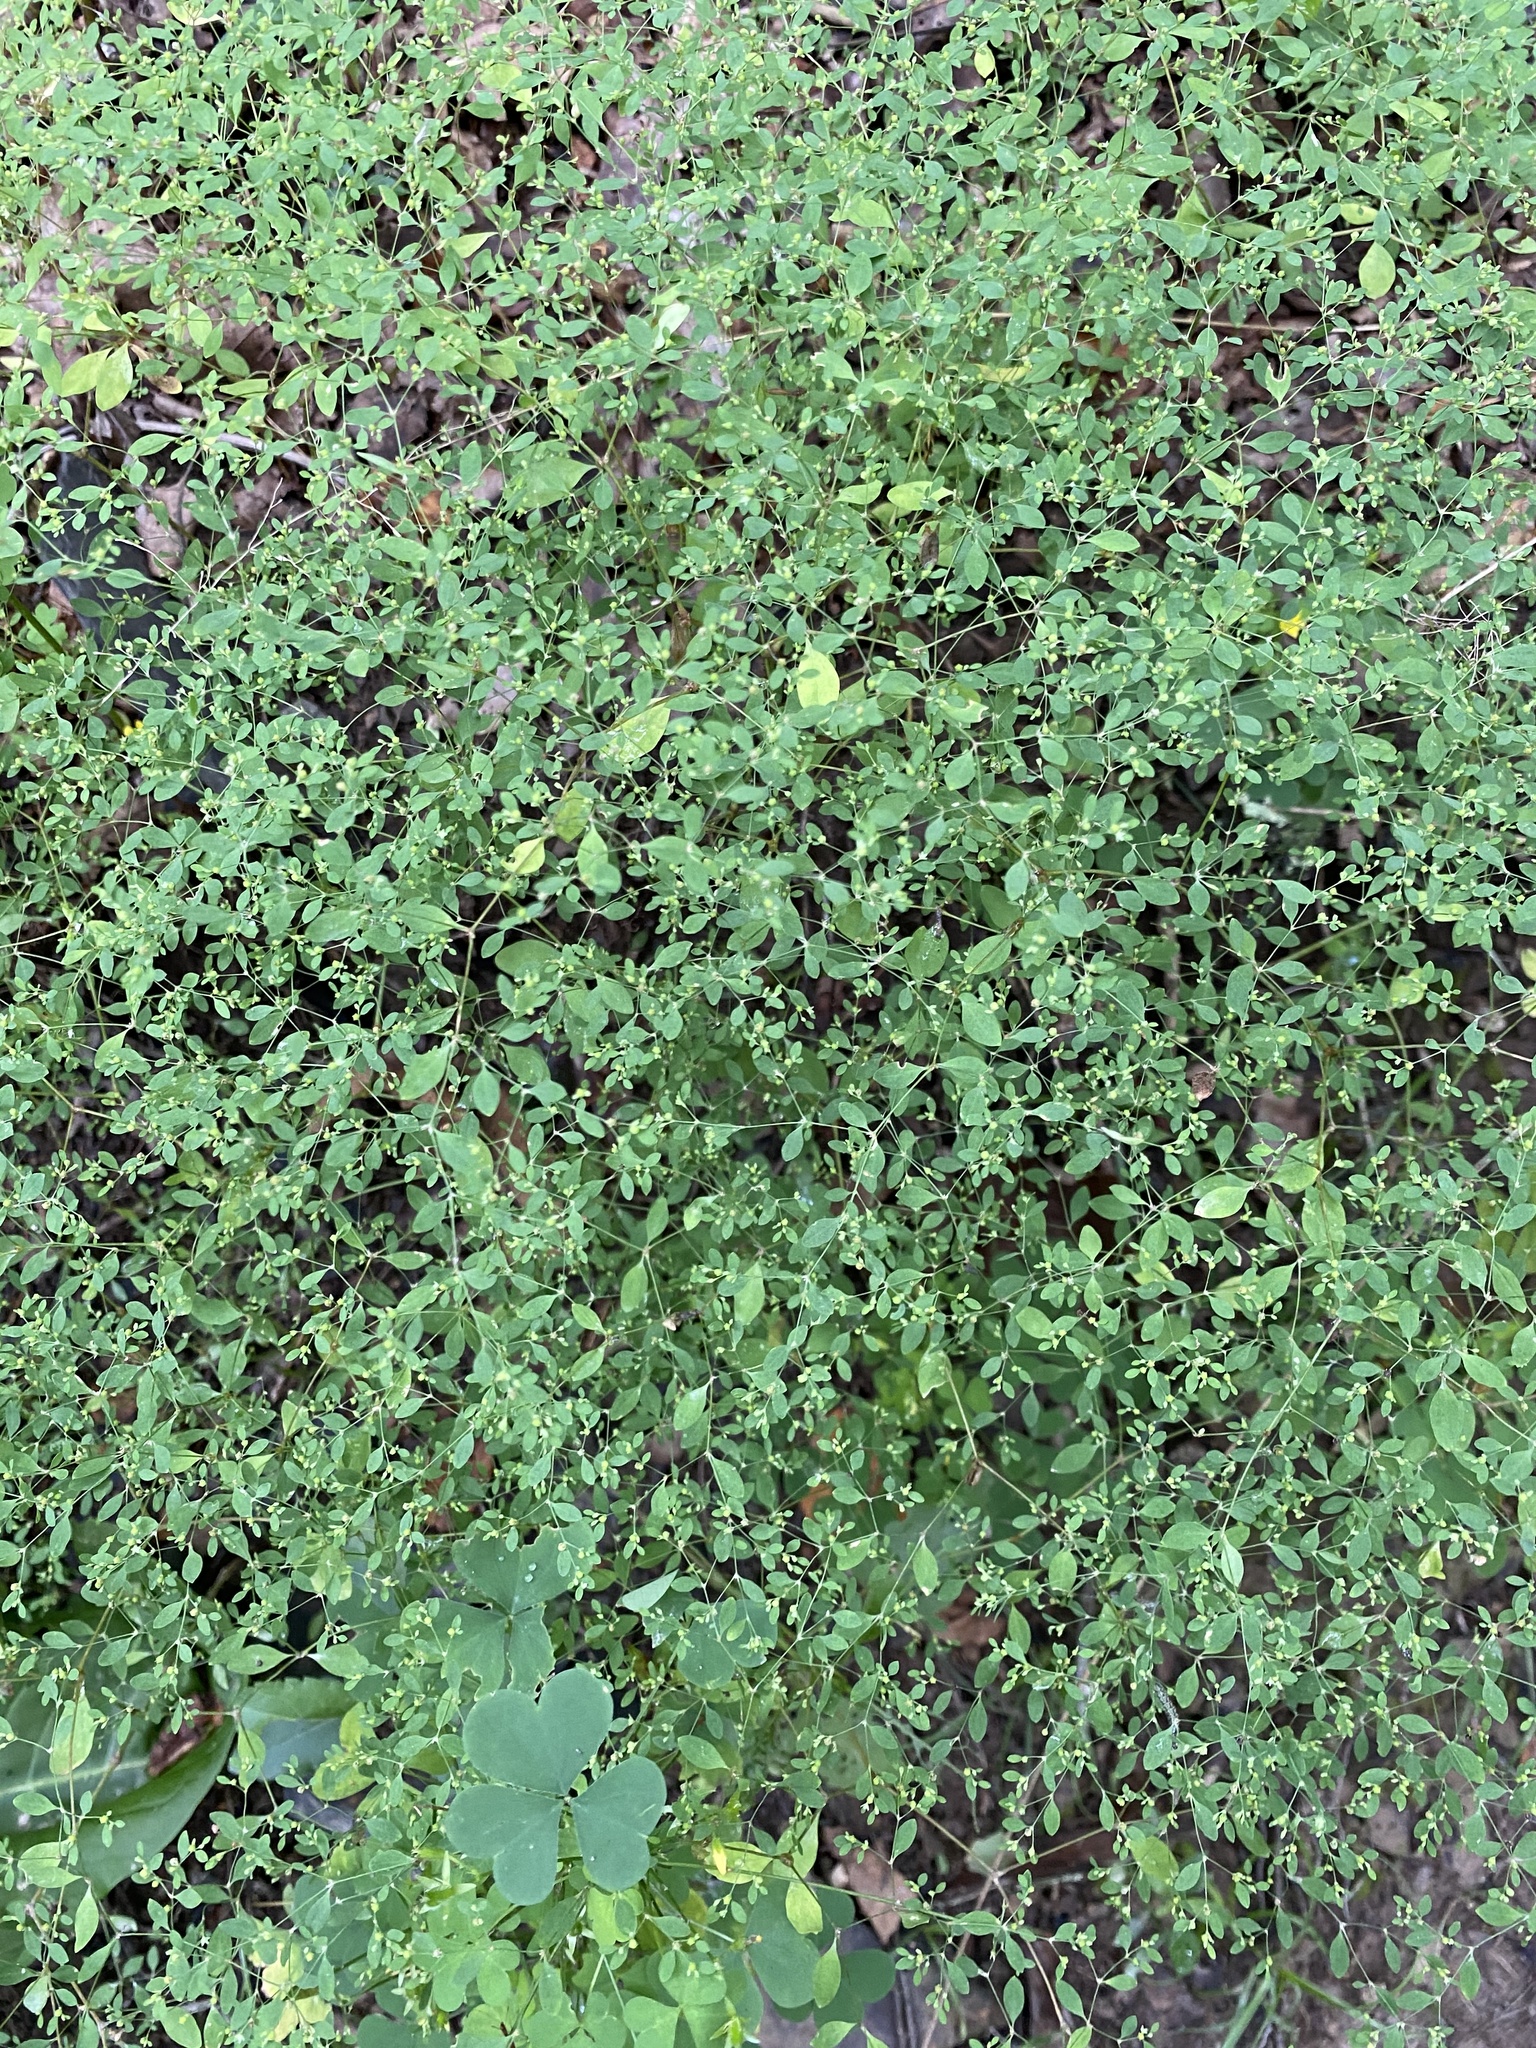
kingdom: Plantae
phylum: Tracheophyta
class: Magnoliopsida
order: Caryophyllales
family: Caryophyllaceae
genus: Paronychia
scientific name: Paronychia canadensis
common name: Canada forked nailwort
